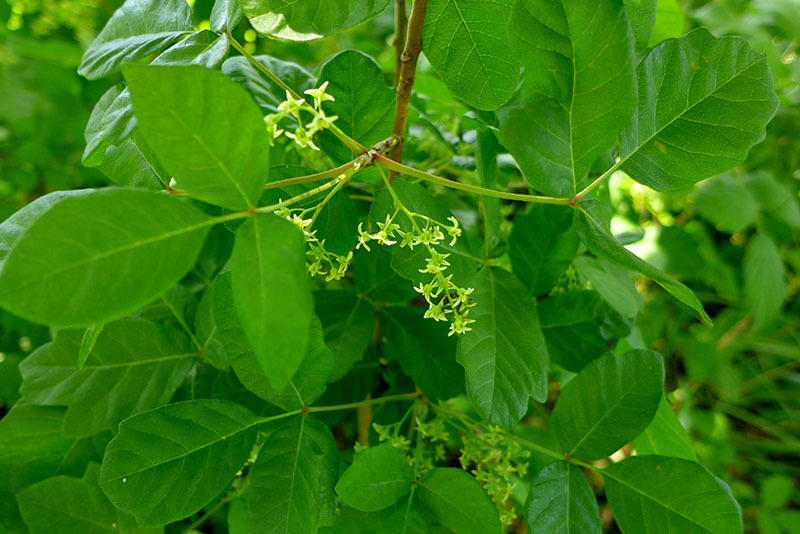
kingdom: Plantae
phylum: Tracheophyta
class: Magnoliopsida
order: Sapindales
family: Anacardiaceae
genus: Toxicodendron
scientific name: Toxicodendron diversilobum
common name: Pacific poison-oak
